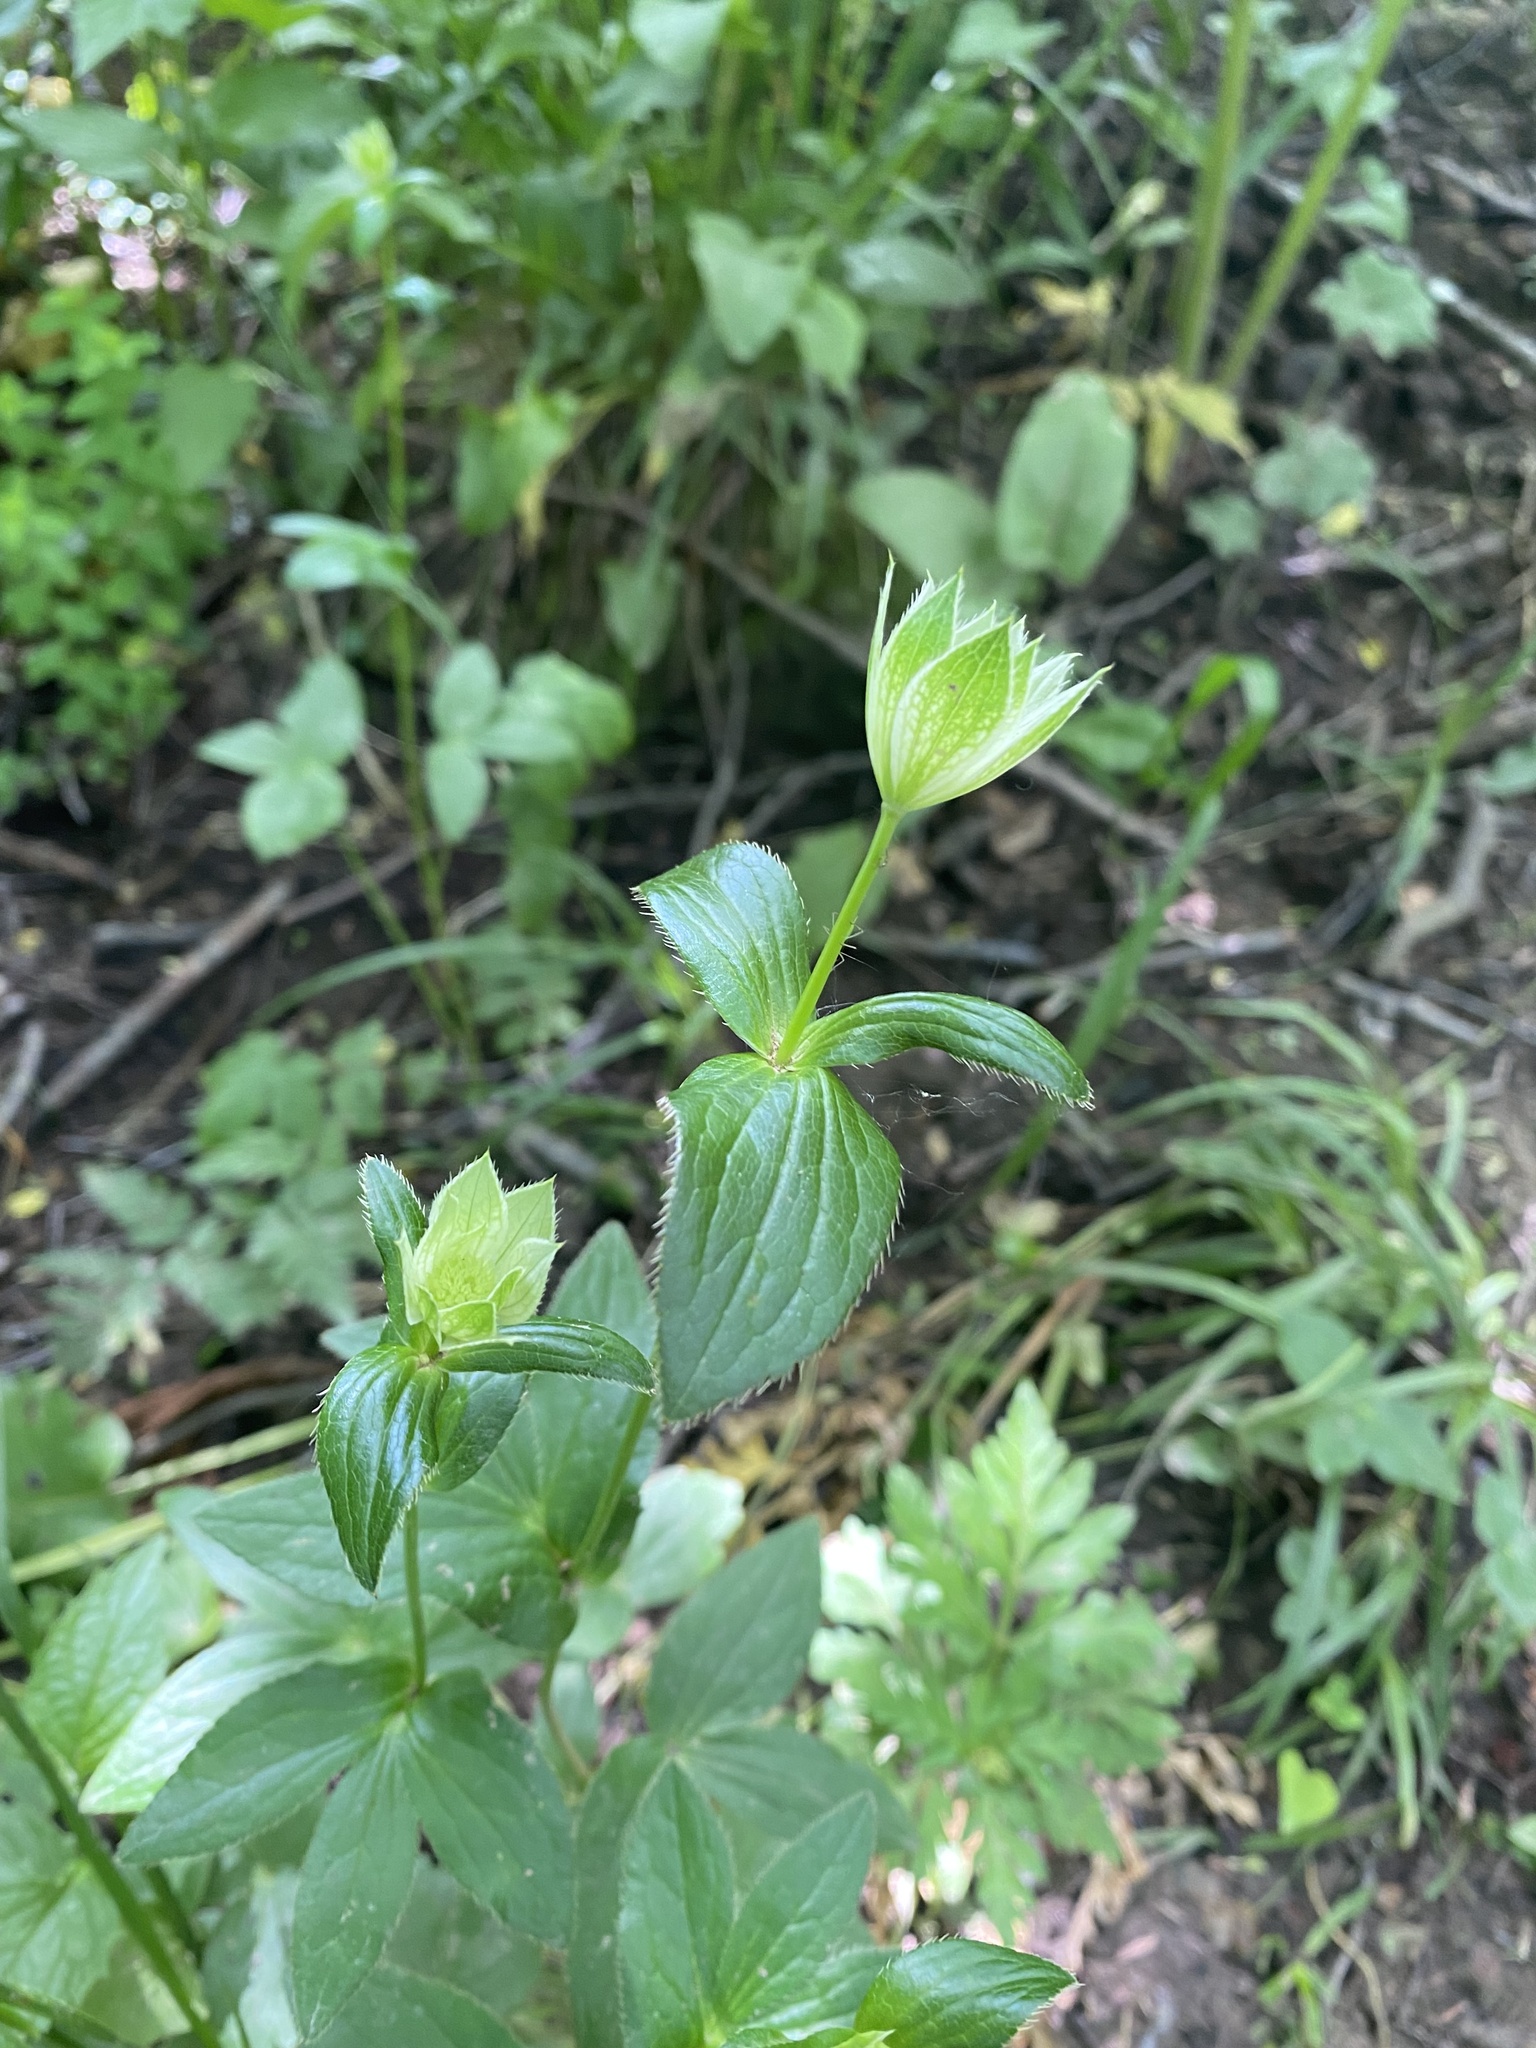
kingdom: Plantae
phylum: Tracheophyta
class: Magnoliopsida
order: Apiales
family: Apiaceae
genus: Astrantia
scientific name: Astrantia maxima
